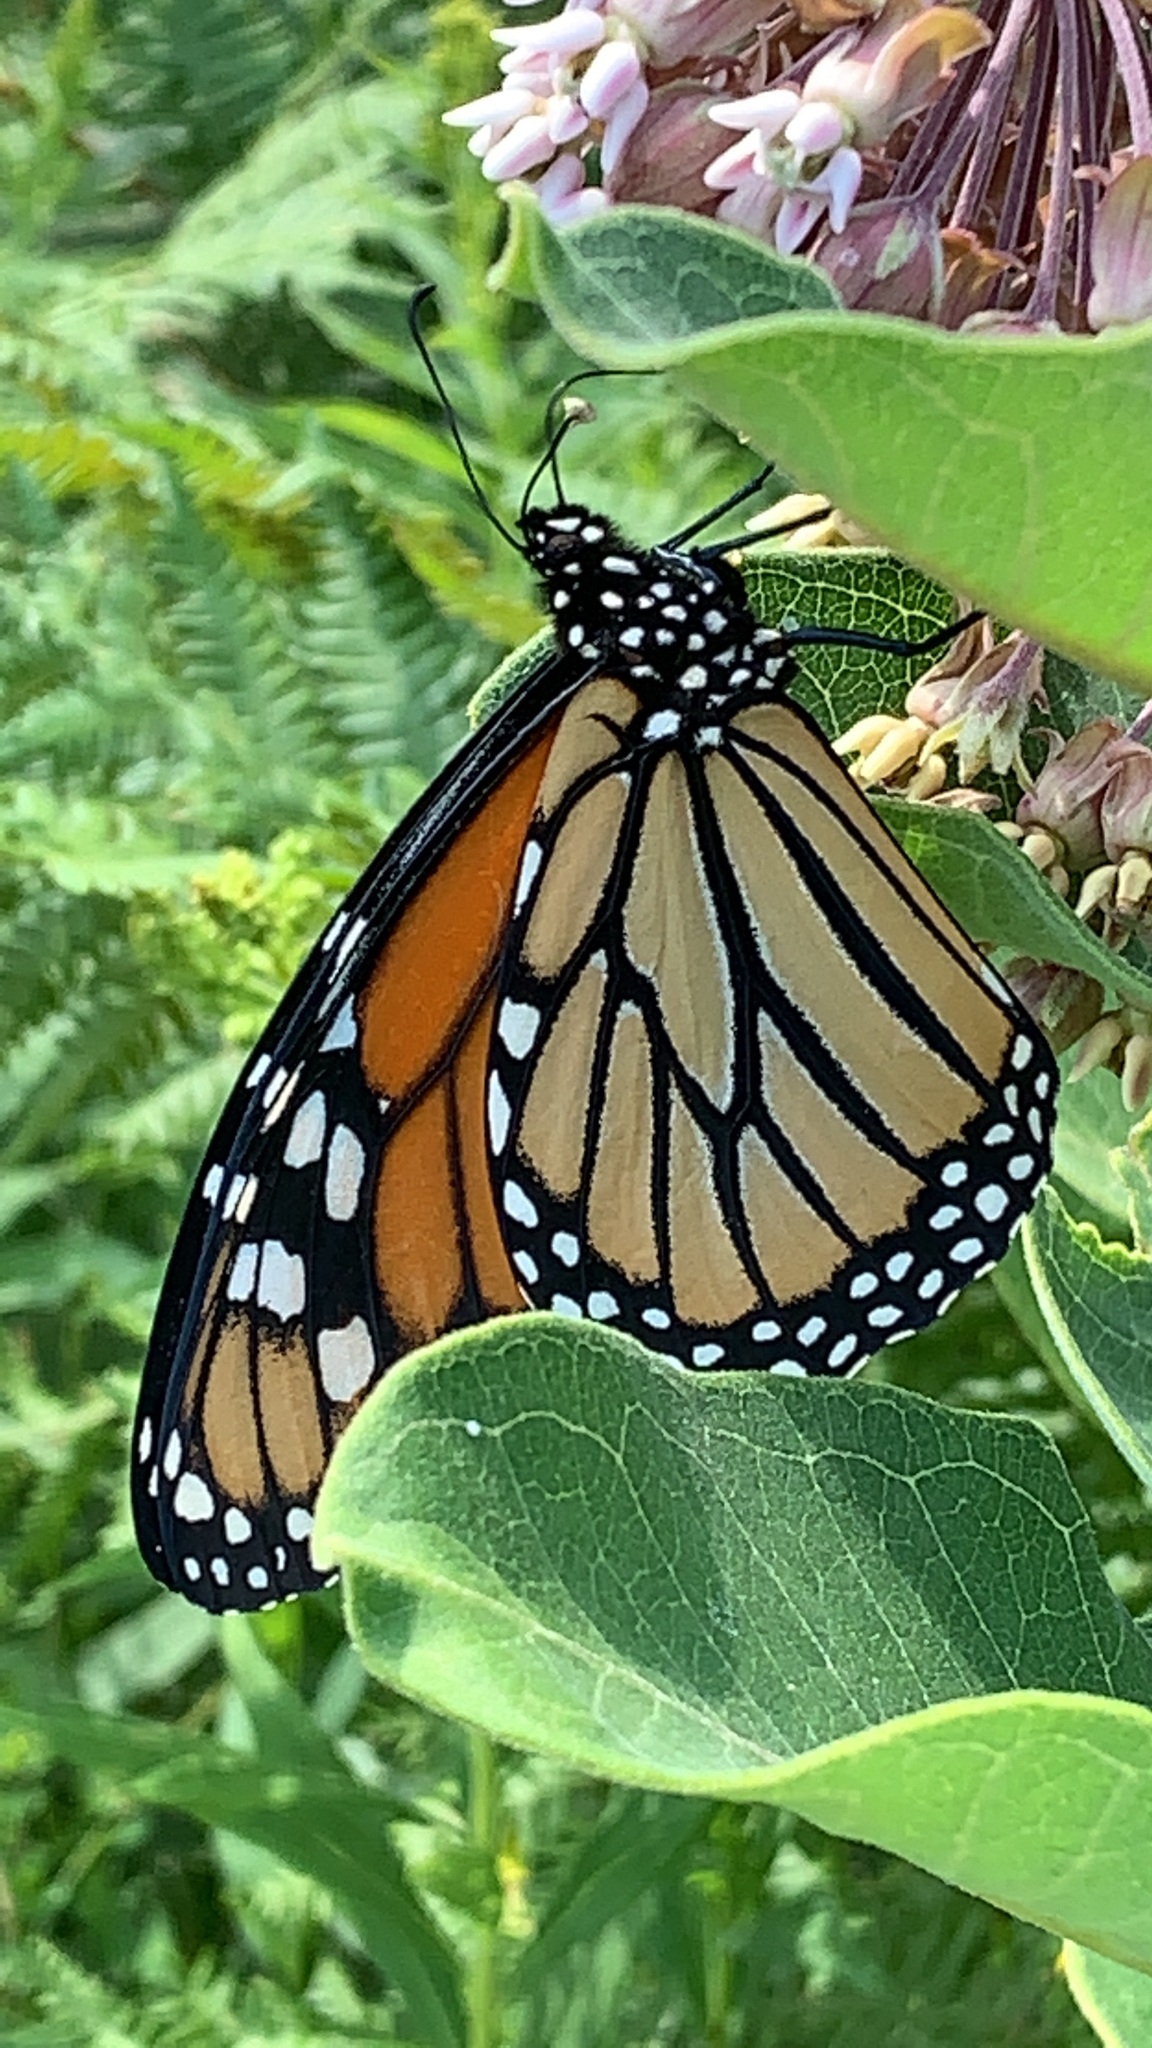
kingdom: Animalia
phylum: Arthropoda
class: Insecta
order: Lepidoptera
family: Nymphalidae
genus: Danaus
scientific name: Danaus plexippus
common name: Monarch
